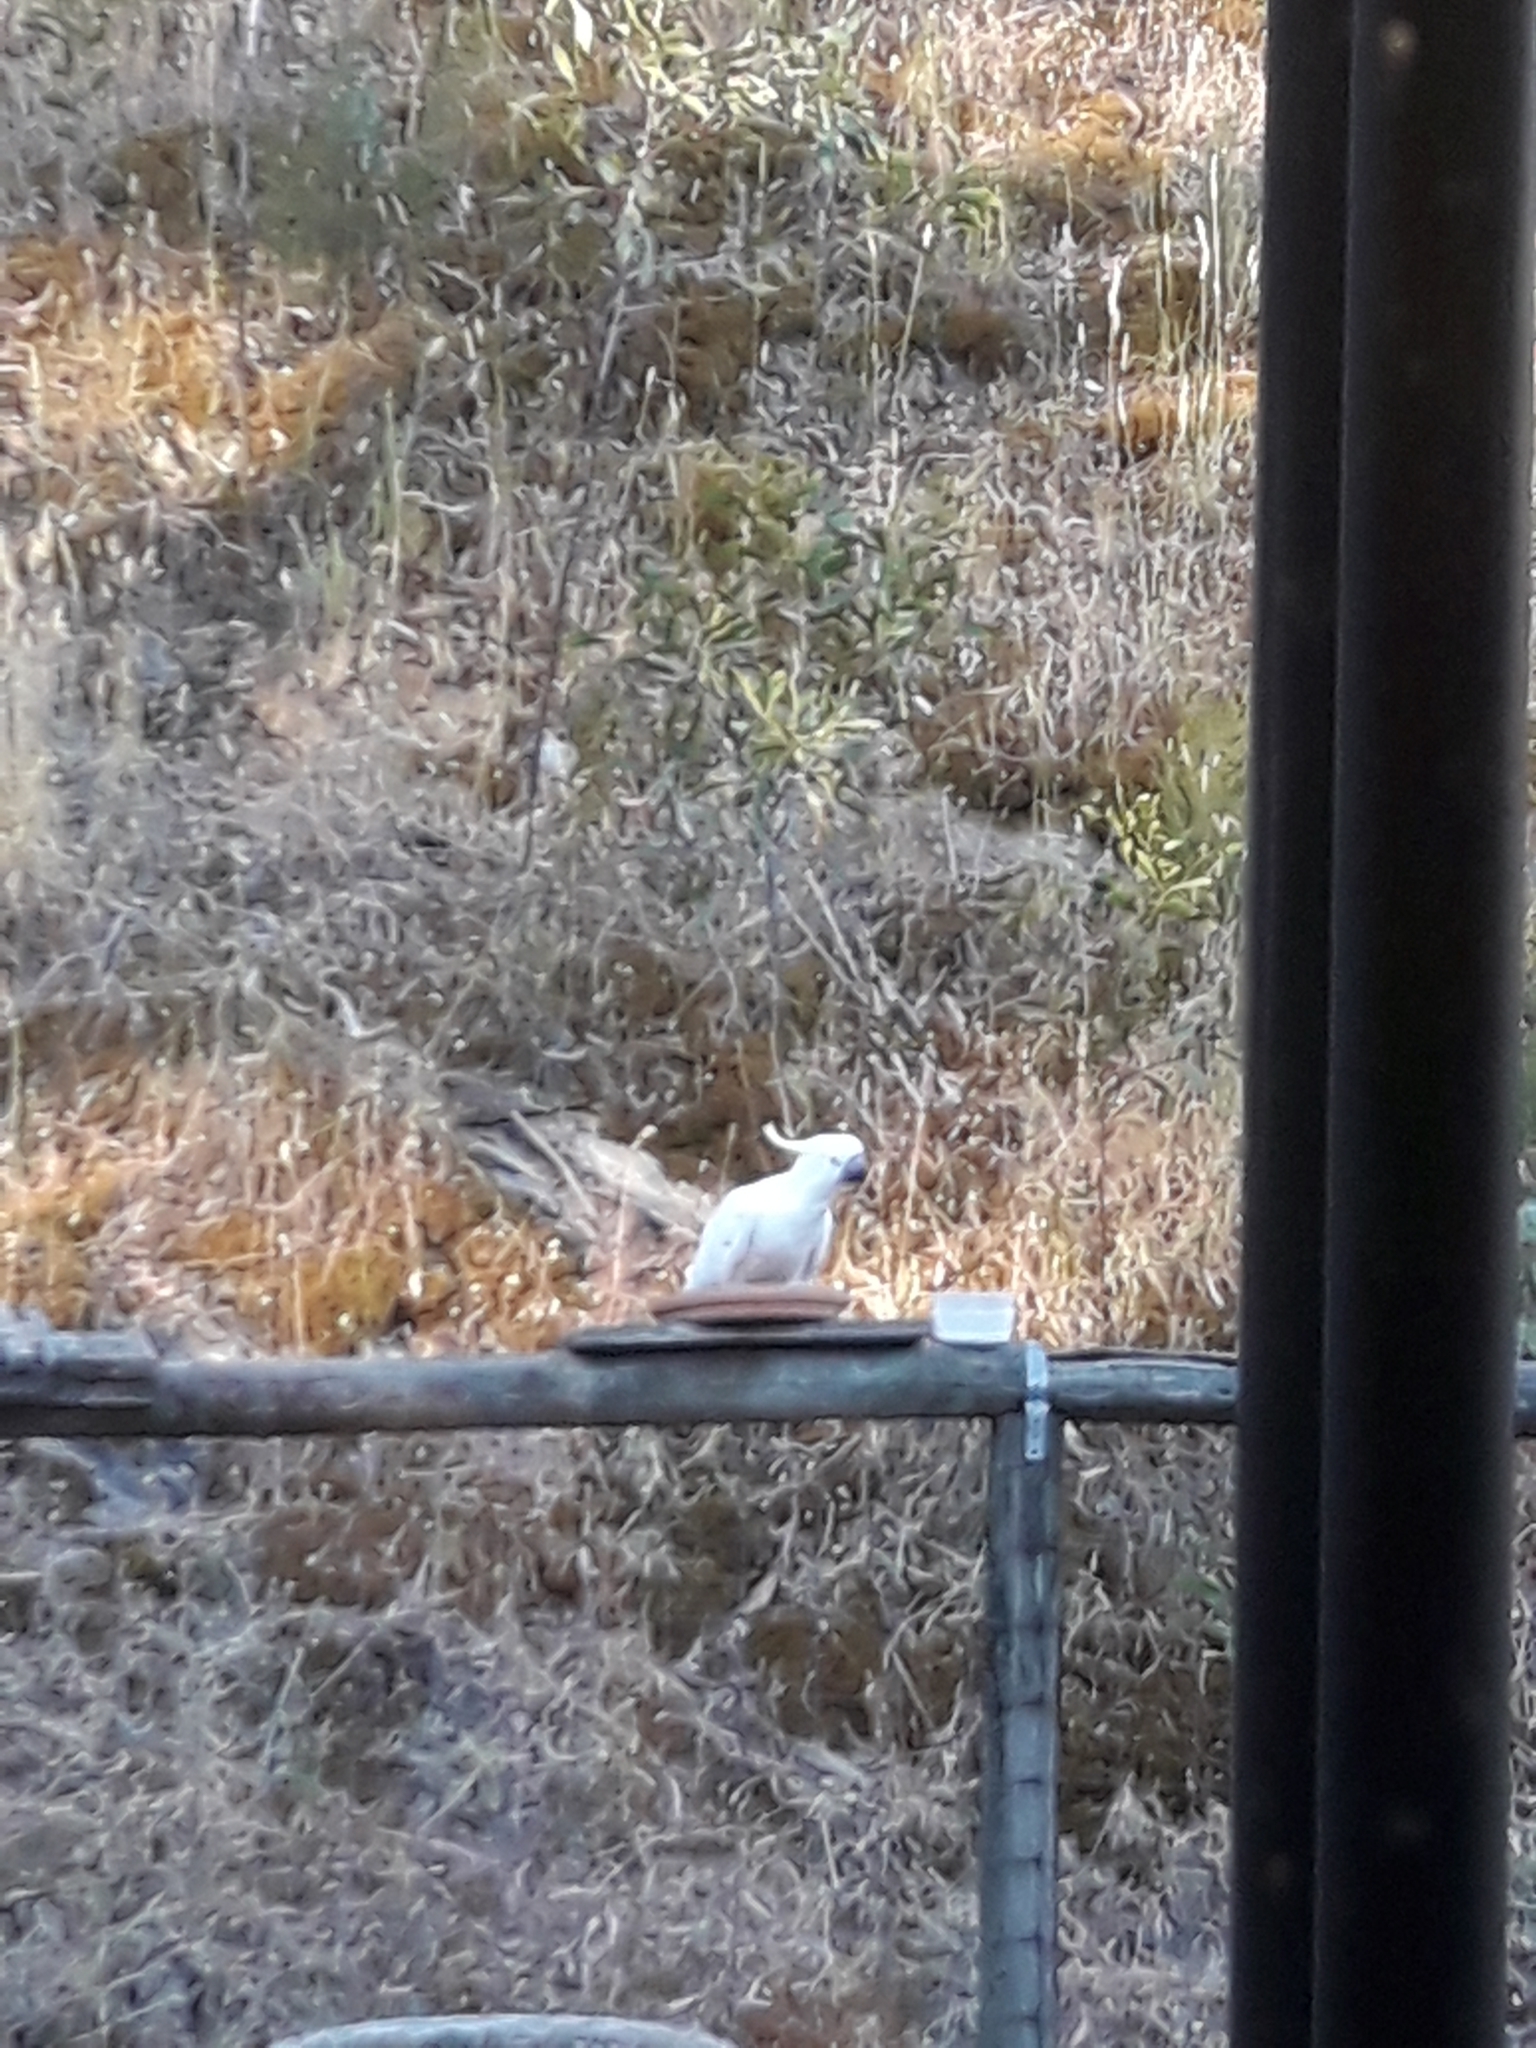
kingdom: Animalia
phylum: Chordata
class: Aves
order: Psittaciformes
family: Psittacidae
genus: Cacatua
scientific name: Cacatua galerita
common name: Sulphur-crested cockatoo
